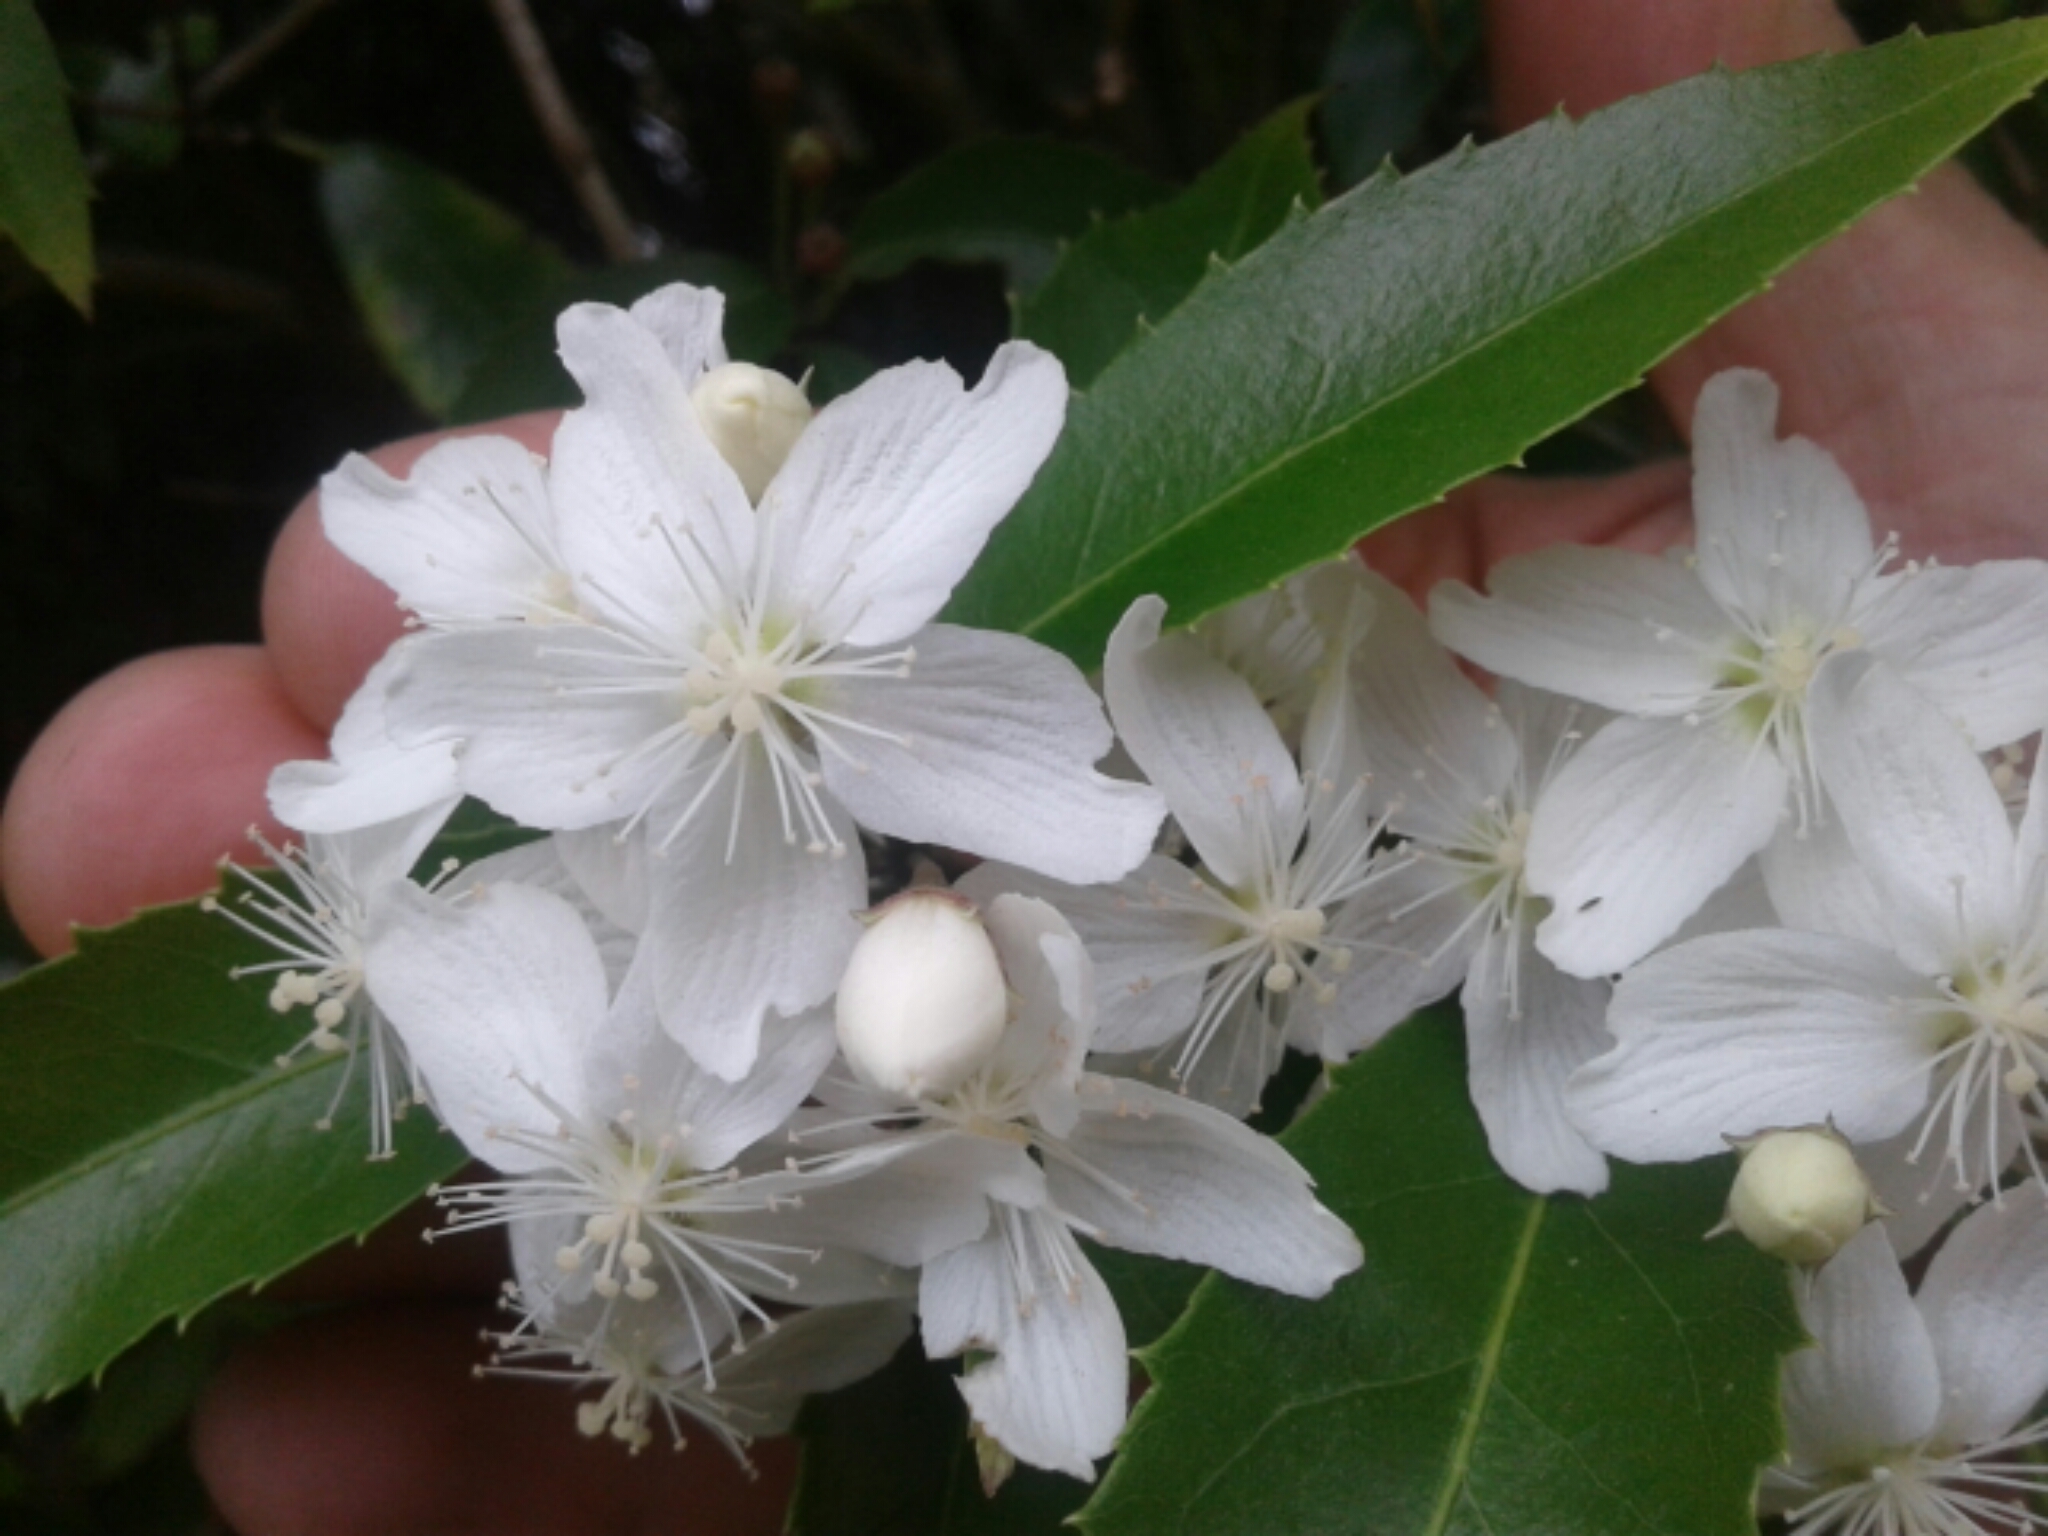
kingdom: Plantae
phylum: Tracheophyta
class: Magnoliopsida
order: Malvales
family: Malvaceae
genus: Hoheria
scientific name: Hoheria ovata
